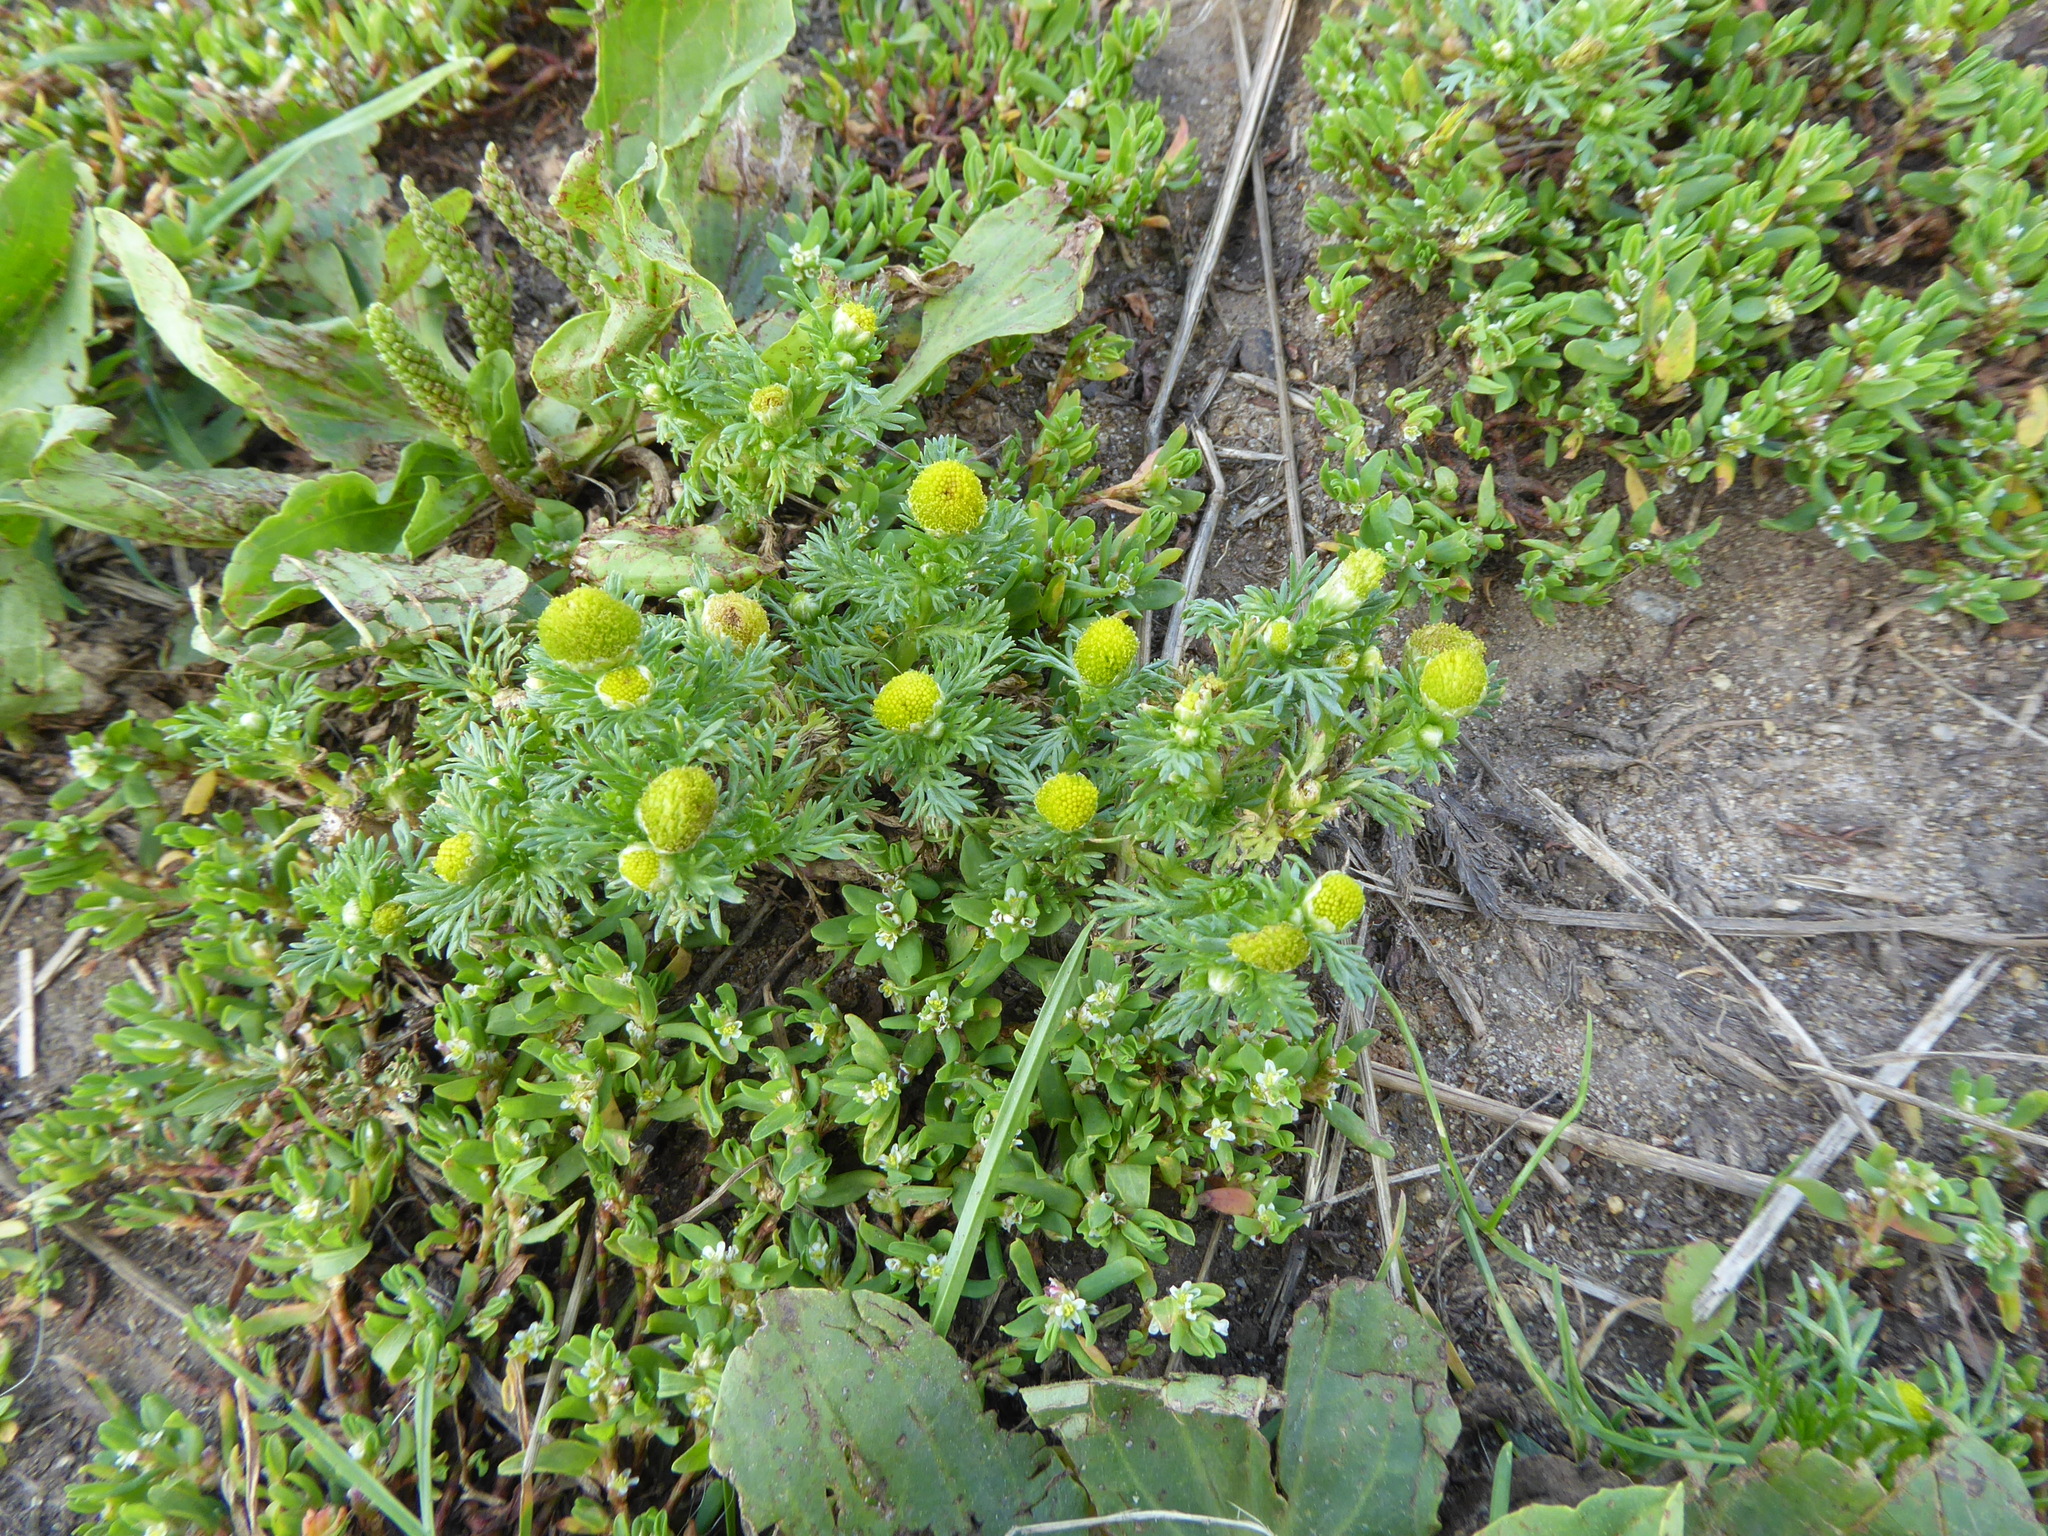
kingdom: Plantae
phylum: Tracheophyta
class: Magnoliopsida
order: Asterales
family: Asteraceae
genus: Matricaria
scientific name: Matricaria discoidea
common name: Disc mayweed
